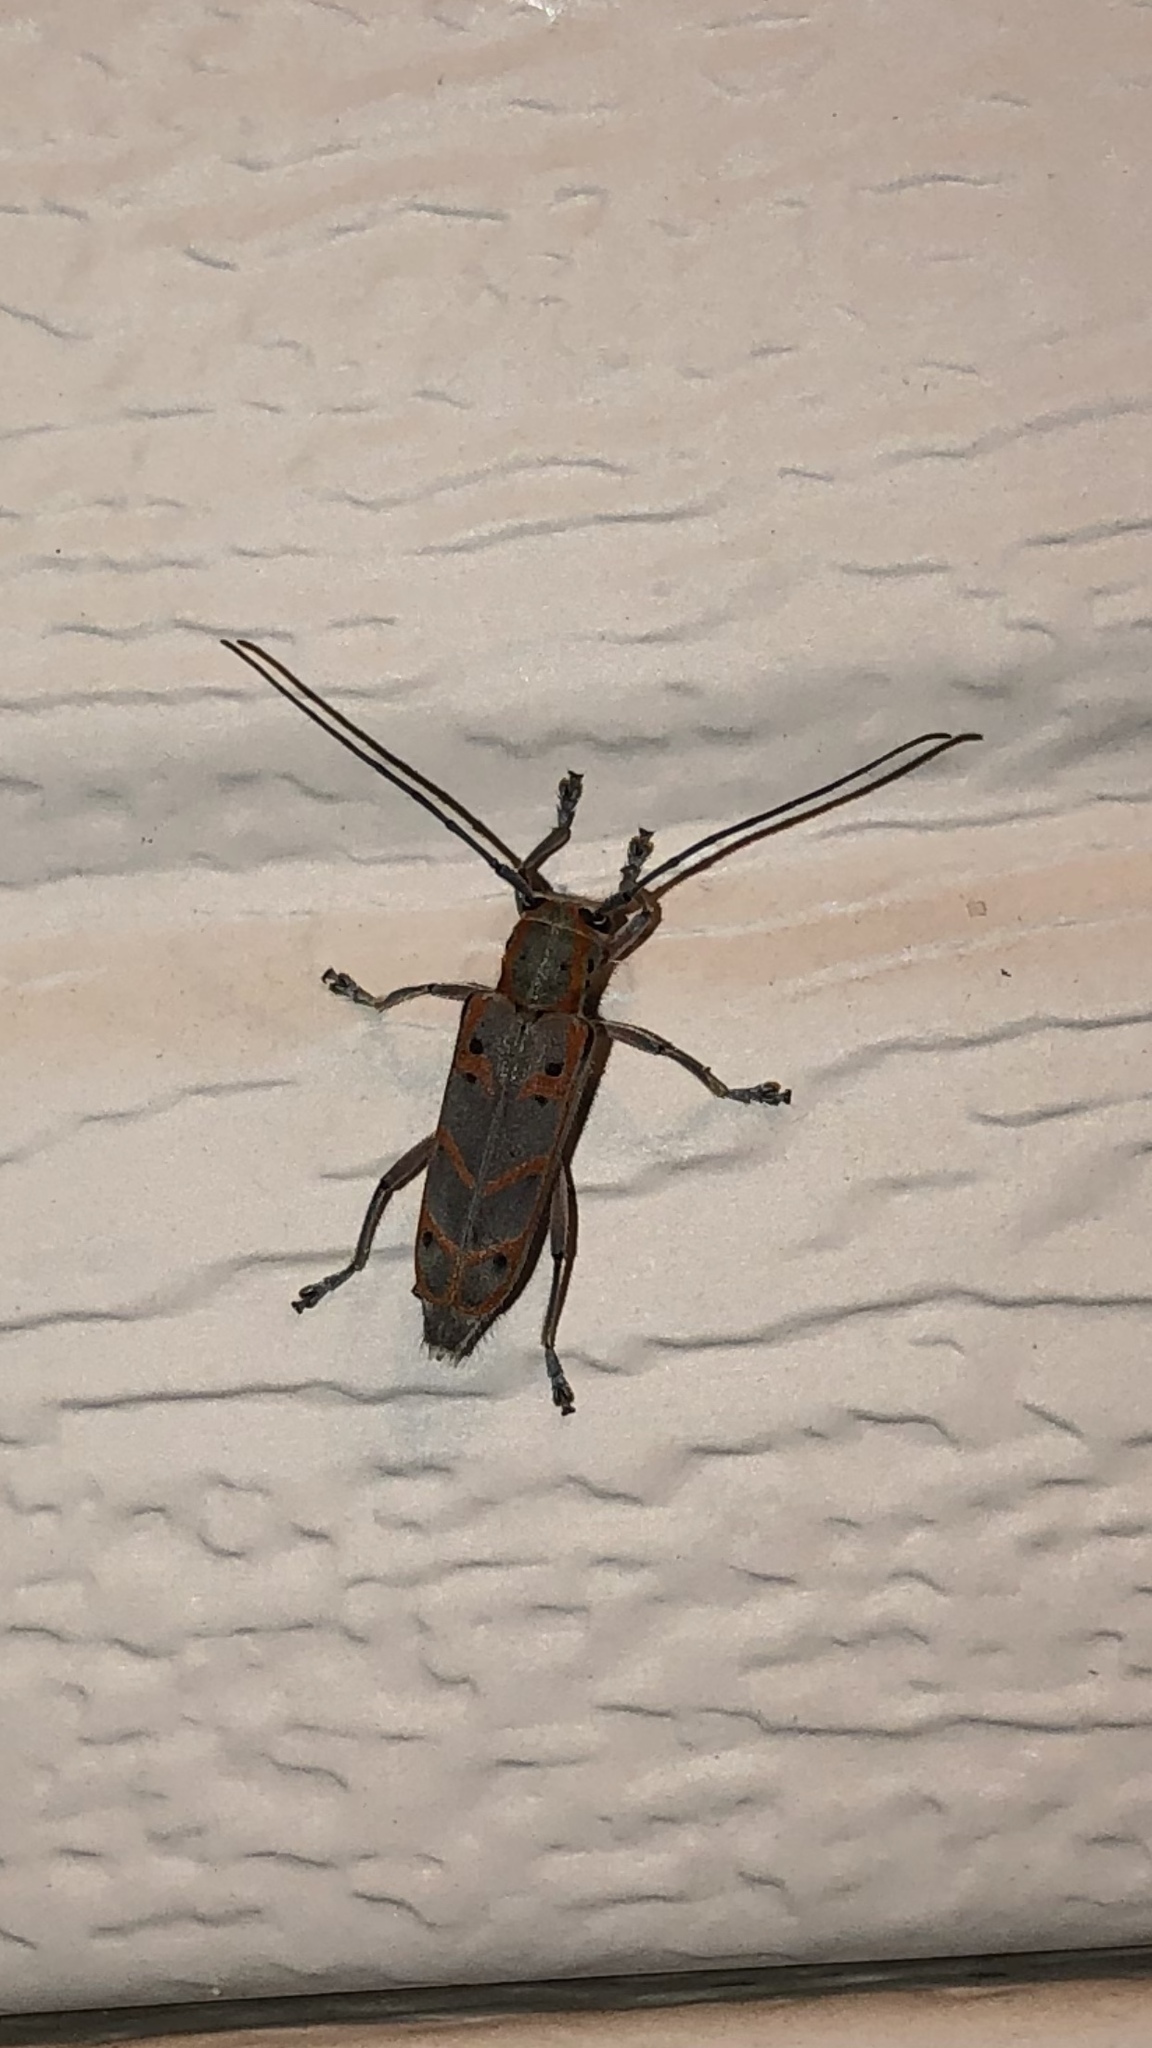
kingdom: Animalia
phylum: Arthropoda
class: Insecta
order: Coleoptera
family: Cerambycidae
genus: Saperda
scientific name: Saperda tridentata
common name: Elm borer
